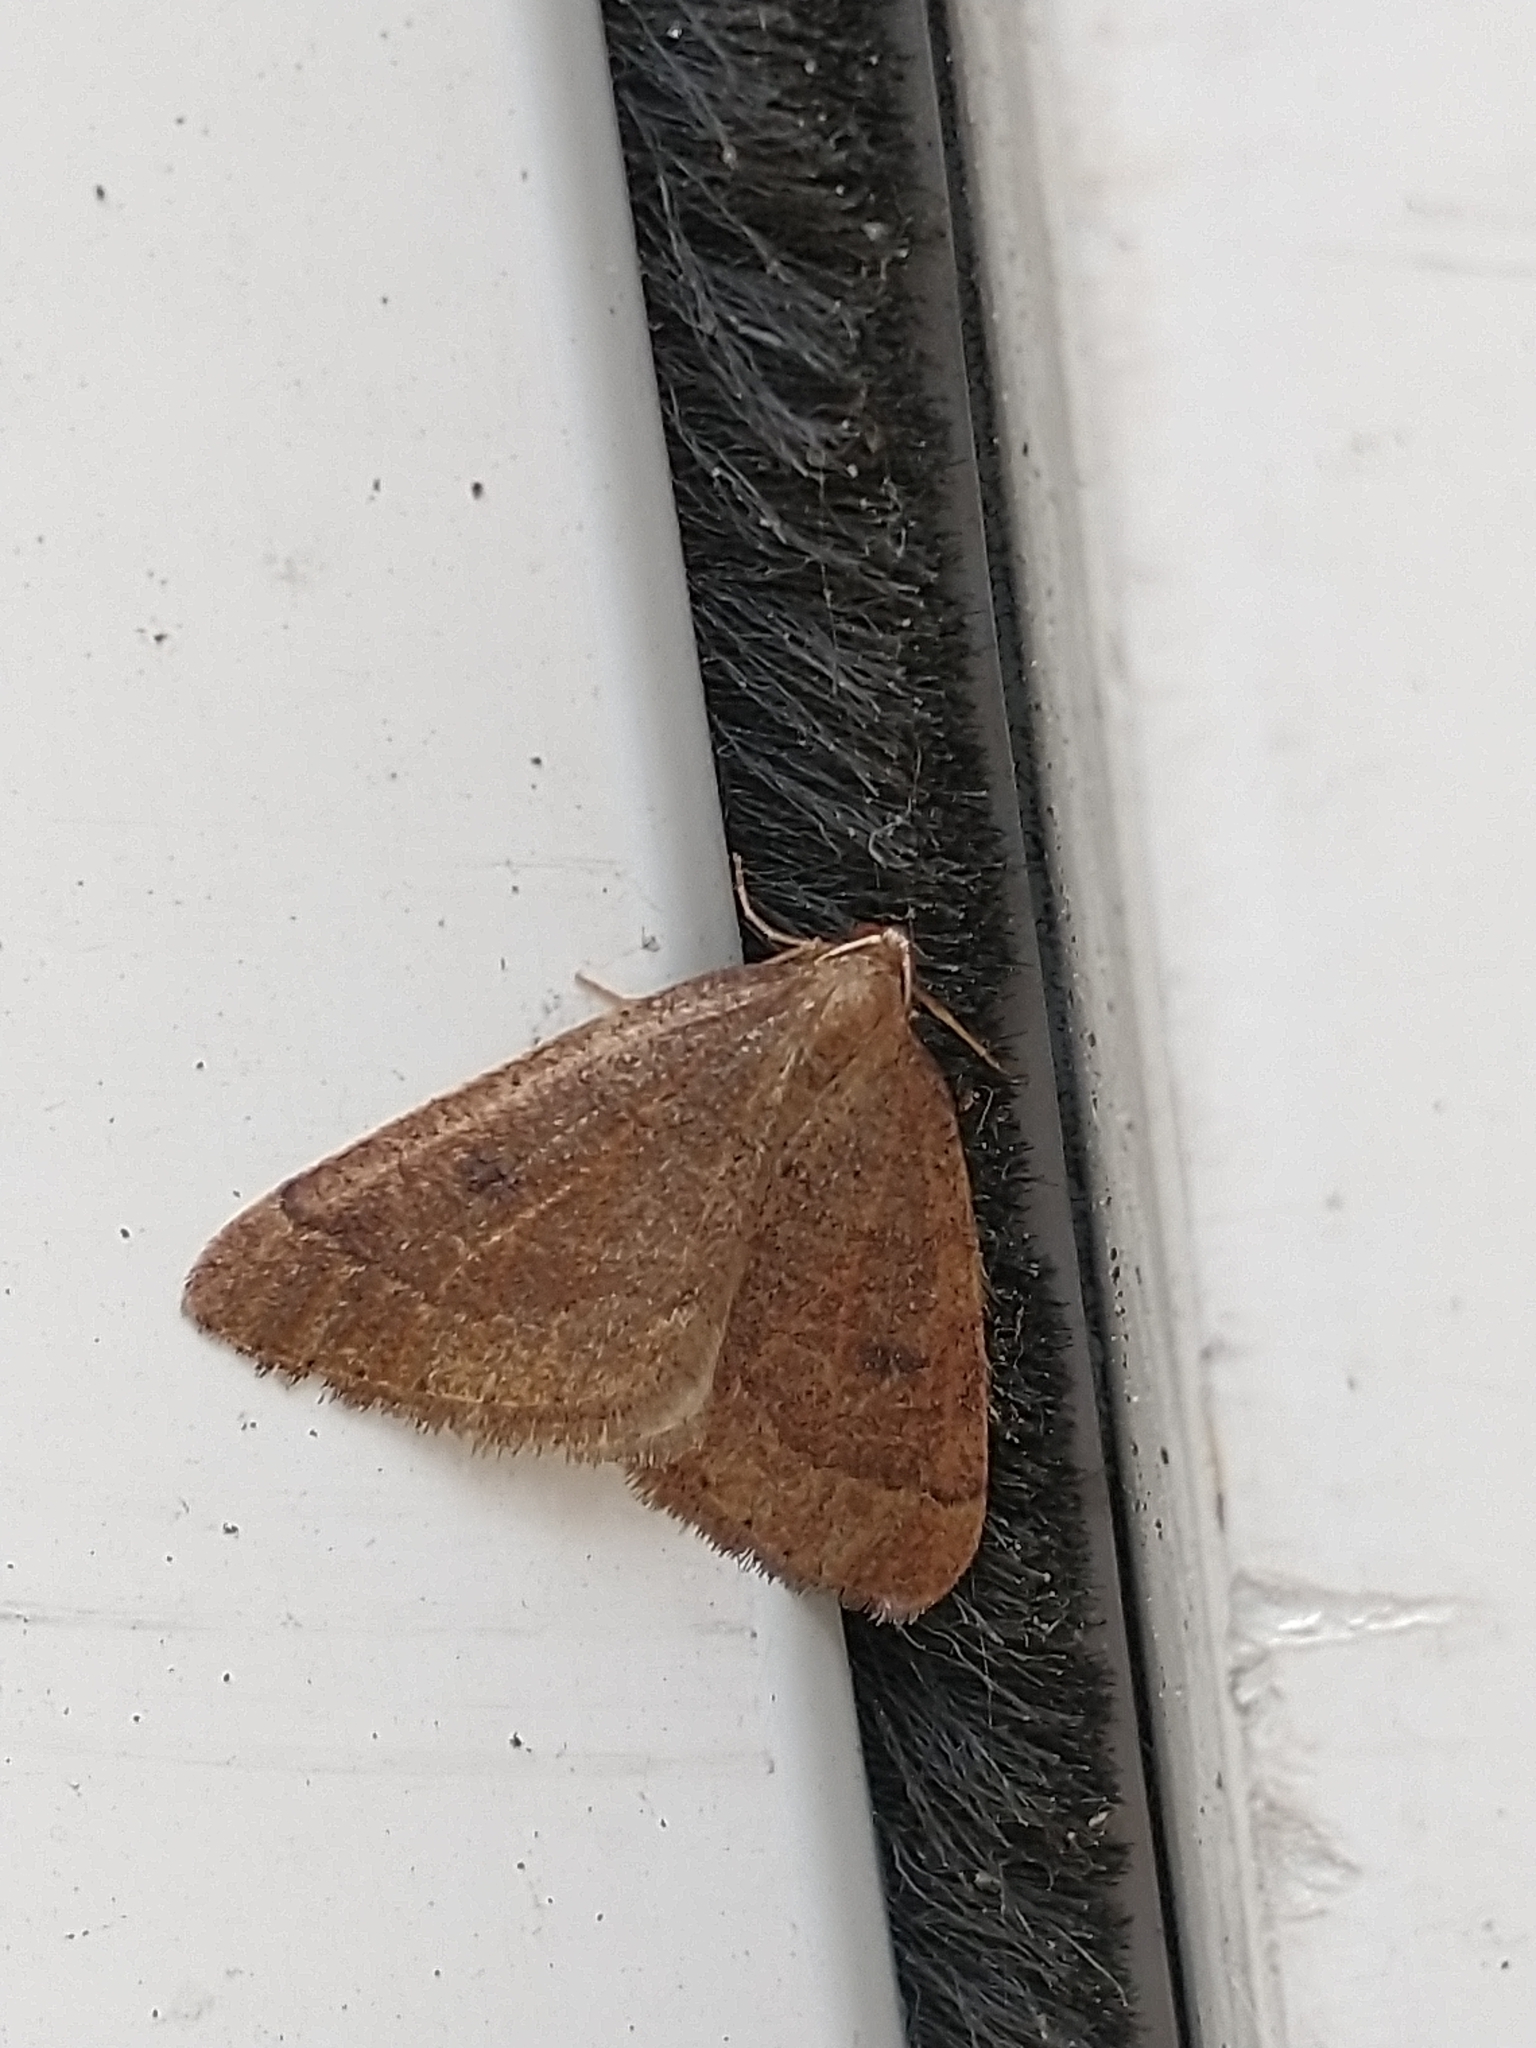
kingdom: Animalia
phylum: Arthropoda
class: Insecta
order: Lepidoptera
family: Geometridae
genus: Theria
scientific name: Theria primaria
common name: Early moth
